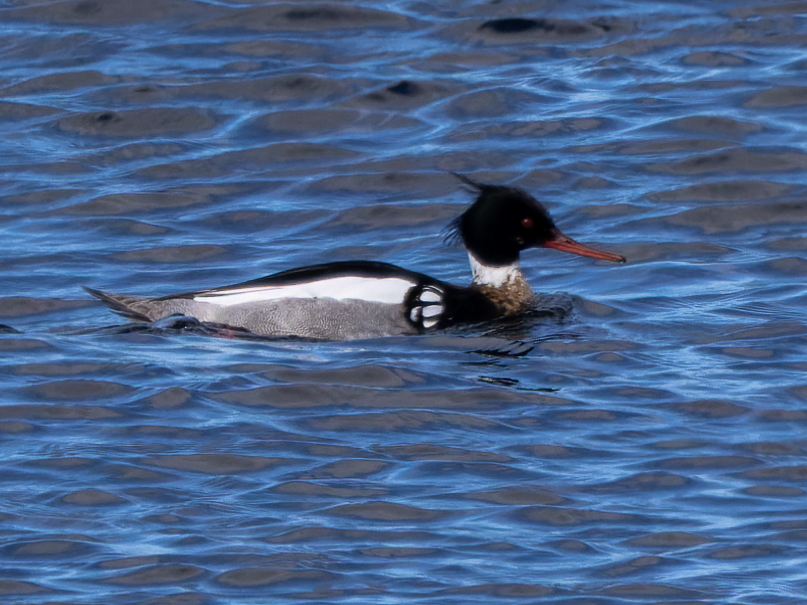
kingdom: Animalia
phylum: Chordata
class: Aves
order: Anseriformes
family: Anatidae
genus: Mergus
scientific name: Mergus serrator
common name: Red-breasted merganser
